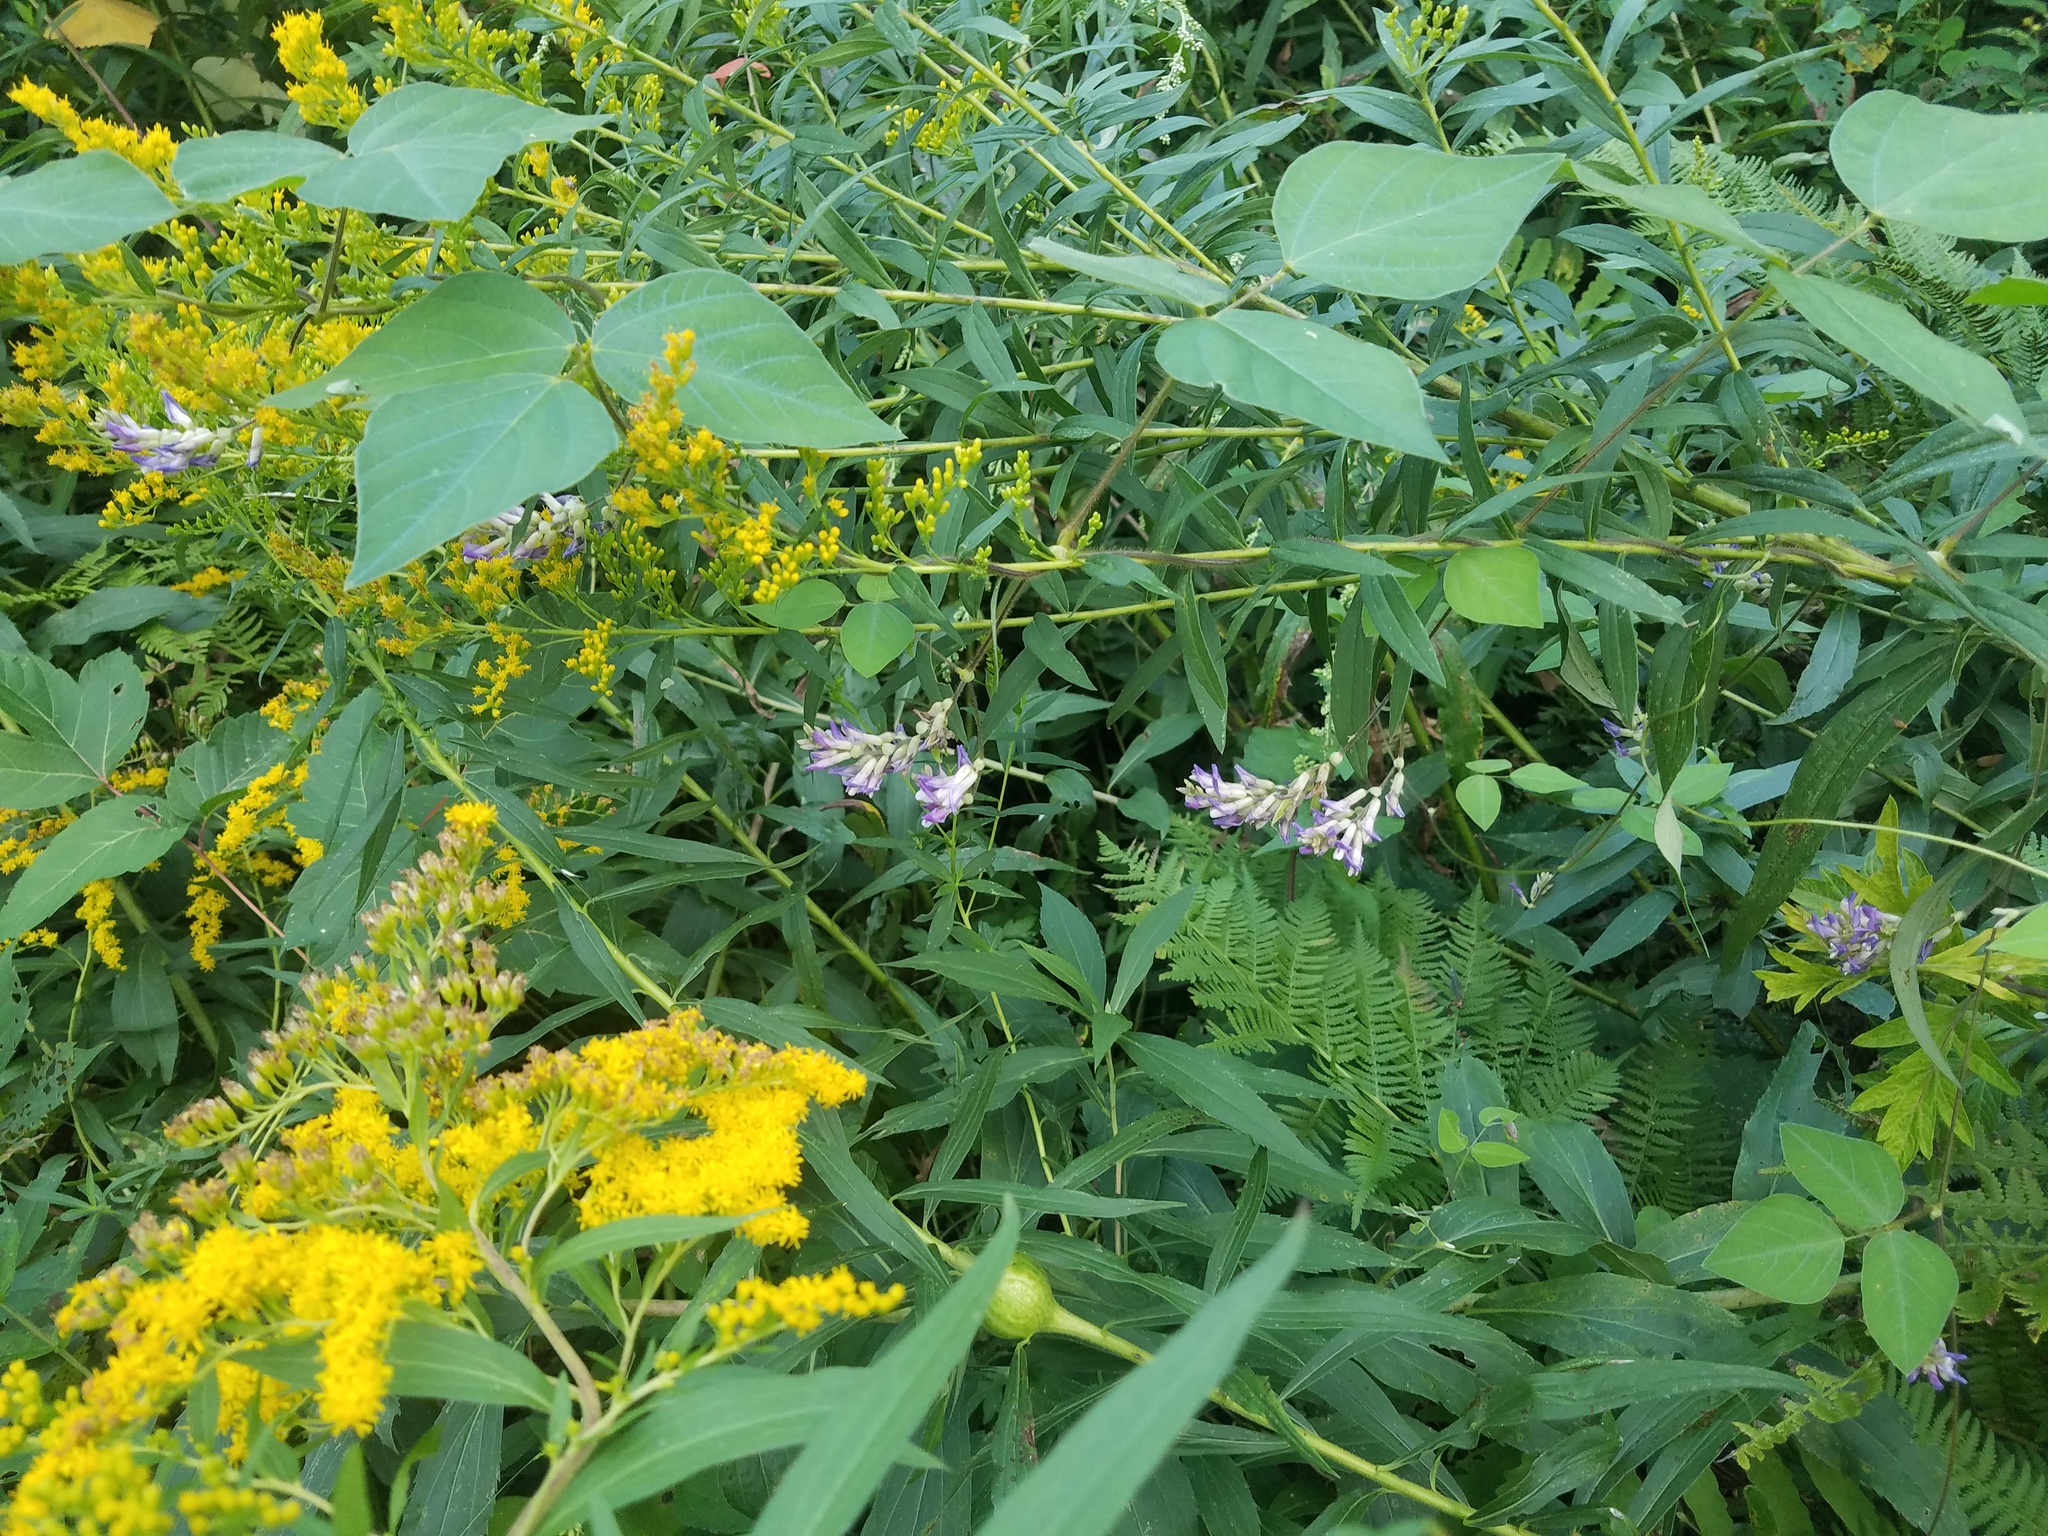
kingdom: Plantae
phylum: Tracheophyta
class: Magnoliopsida
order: Fabales
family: Fabaceae
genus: Amphicarpaea
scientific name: Amphicarpaea bracteata
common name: American hog peanut
